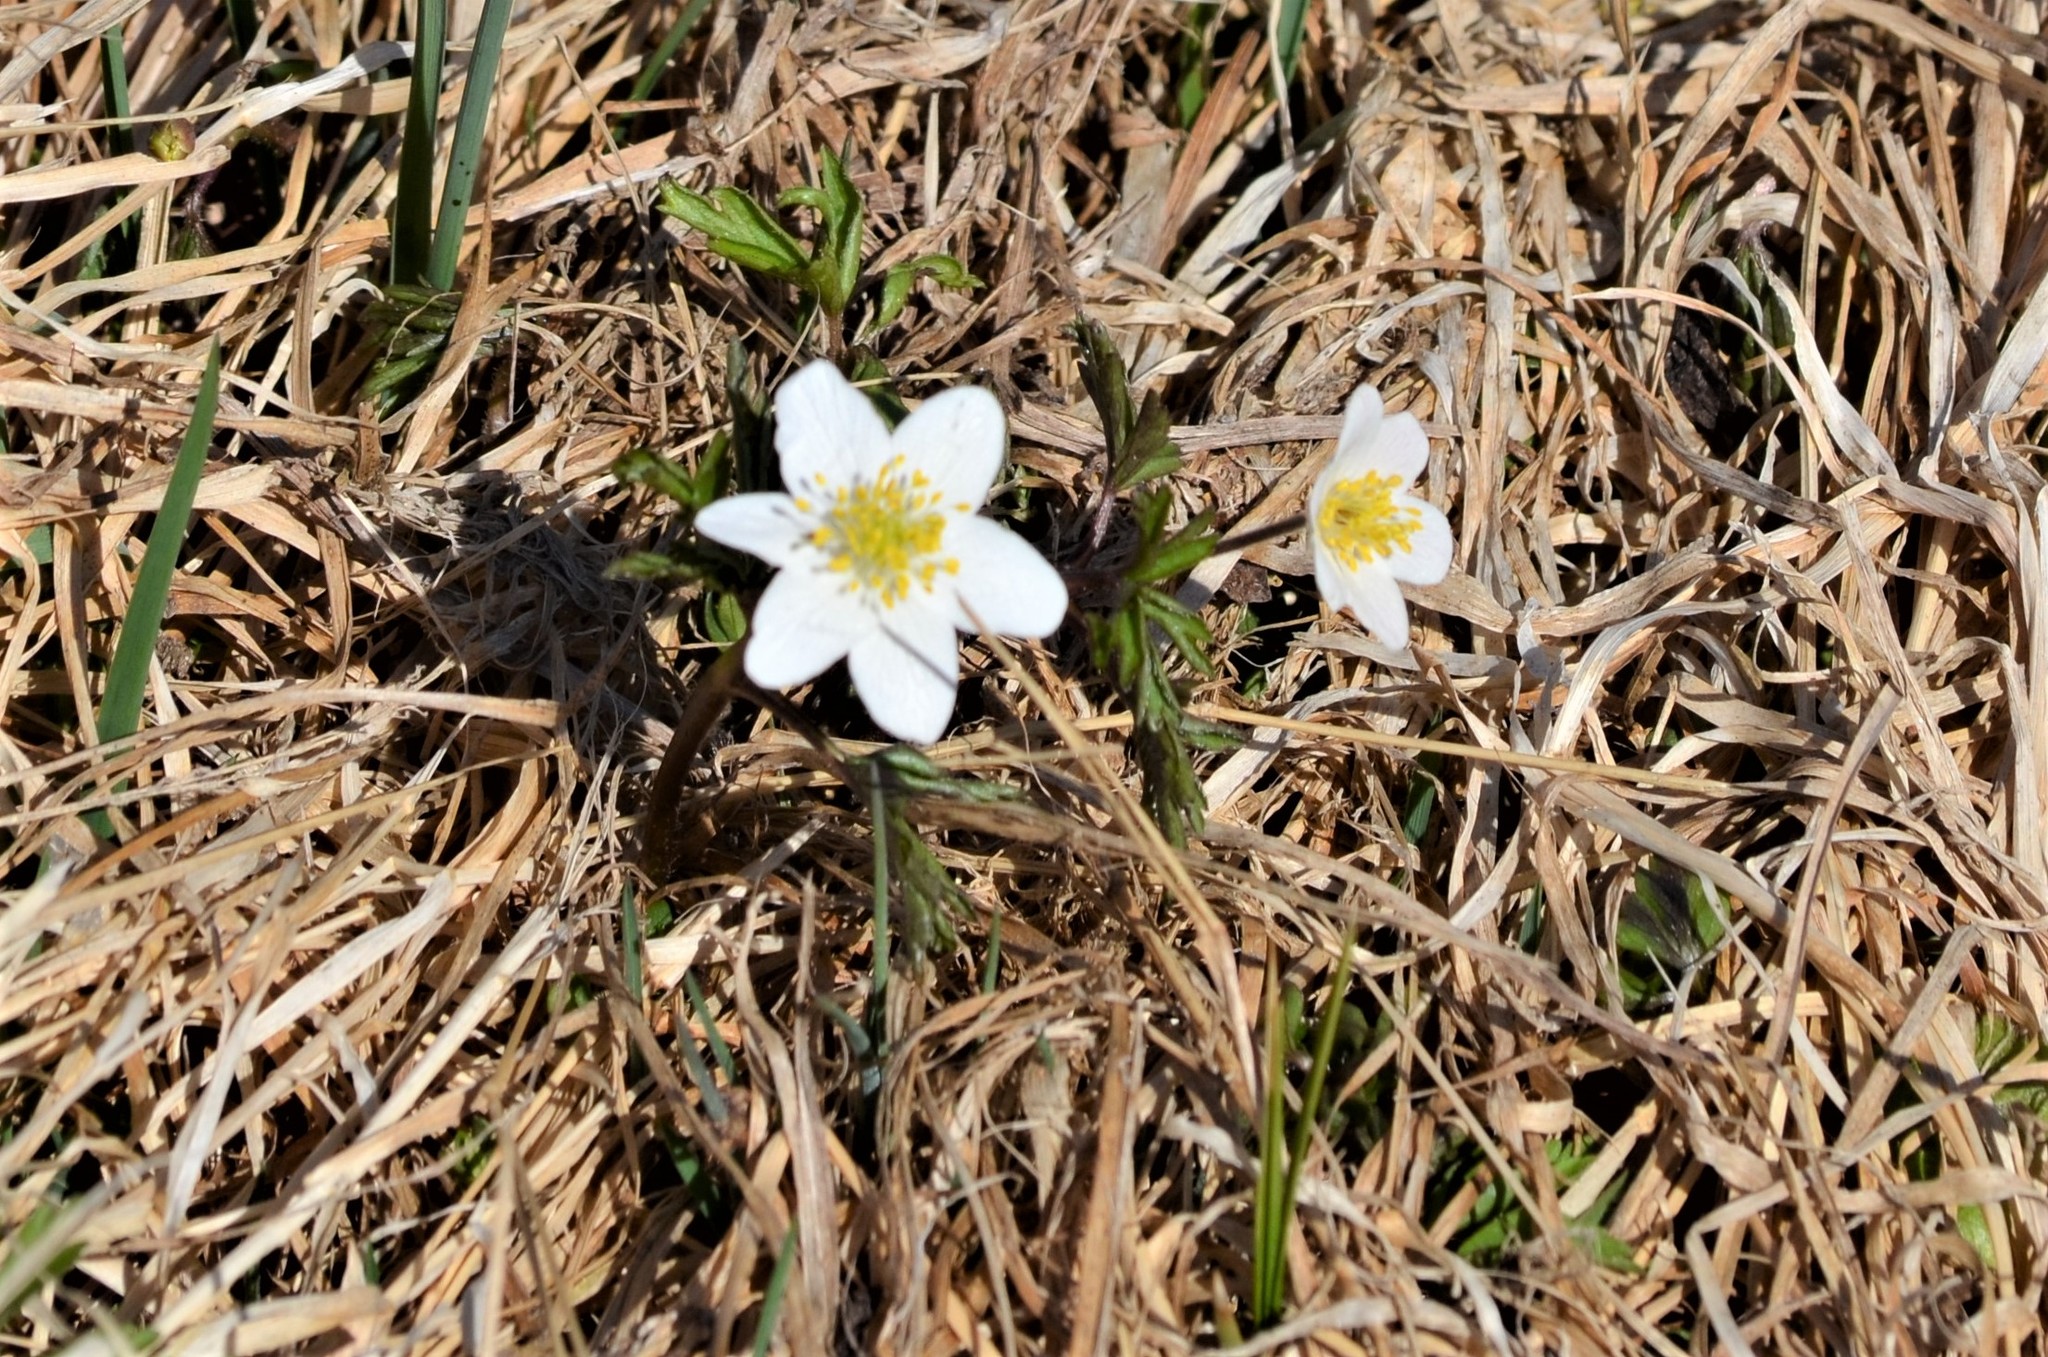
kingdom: Plantae
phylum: Tracheophyta
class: Magnoliopsida
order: Ranunculales
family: Ranunculaceae
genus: Anemone
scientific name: Anemone nemorosa
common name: Wood anemone
